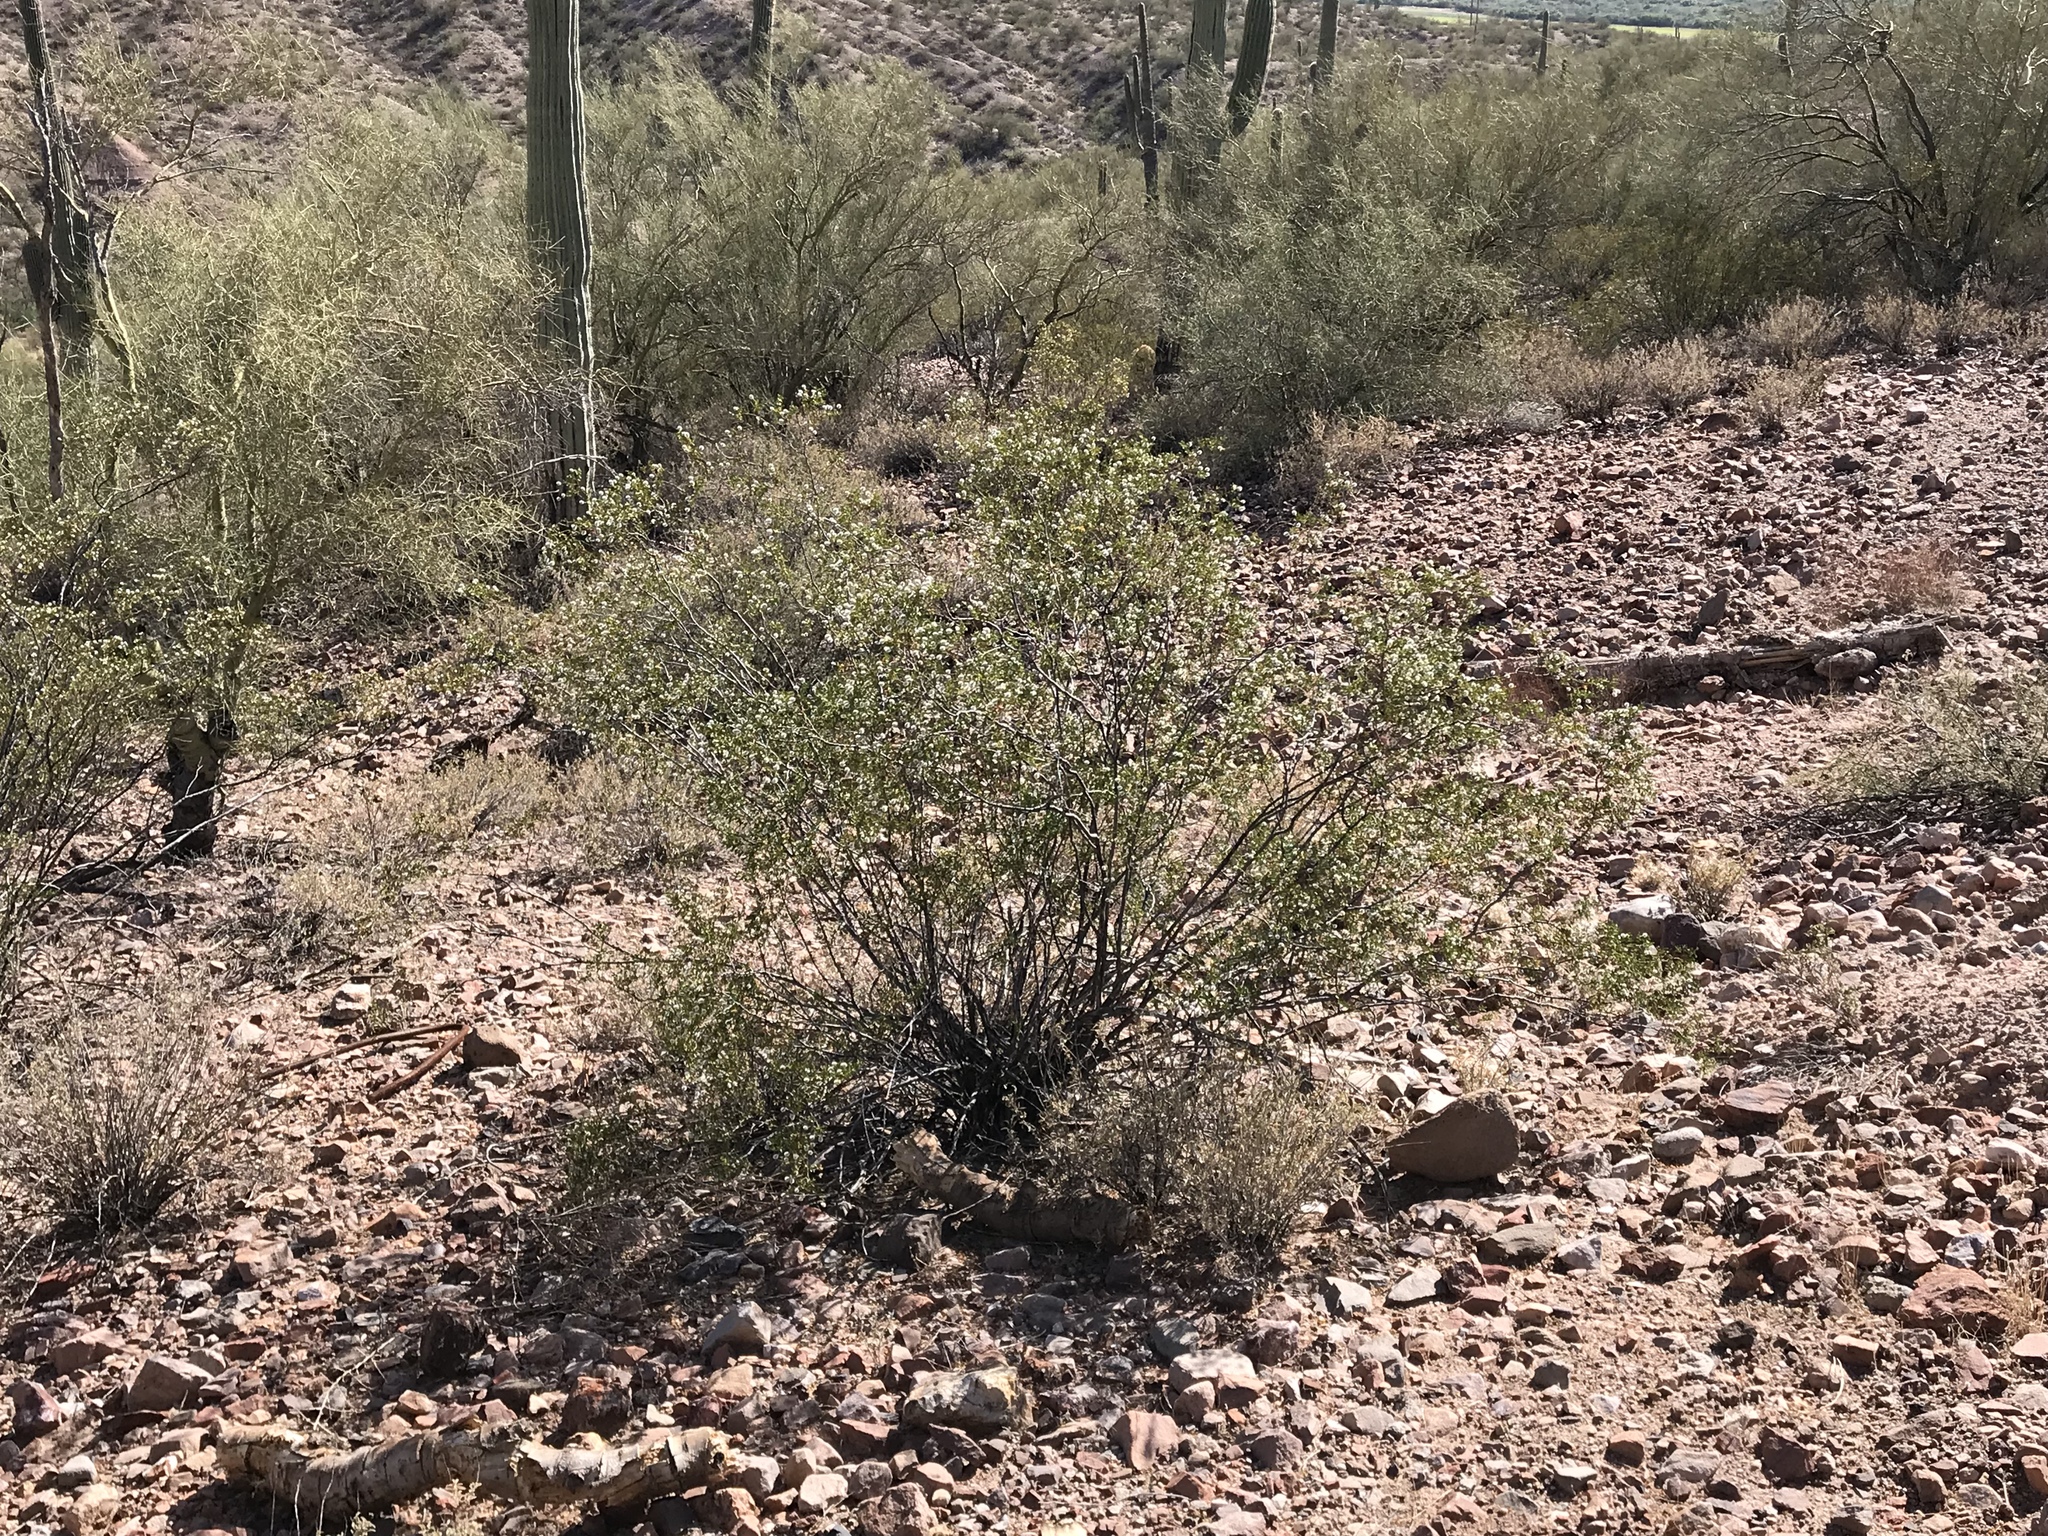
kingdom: Plantae
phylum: Tracheophyta
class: Magnoliopsida
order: Zygophyllales
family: Zygophyllaceae
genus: Larrea
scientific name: Larrea tridentata
